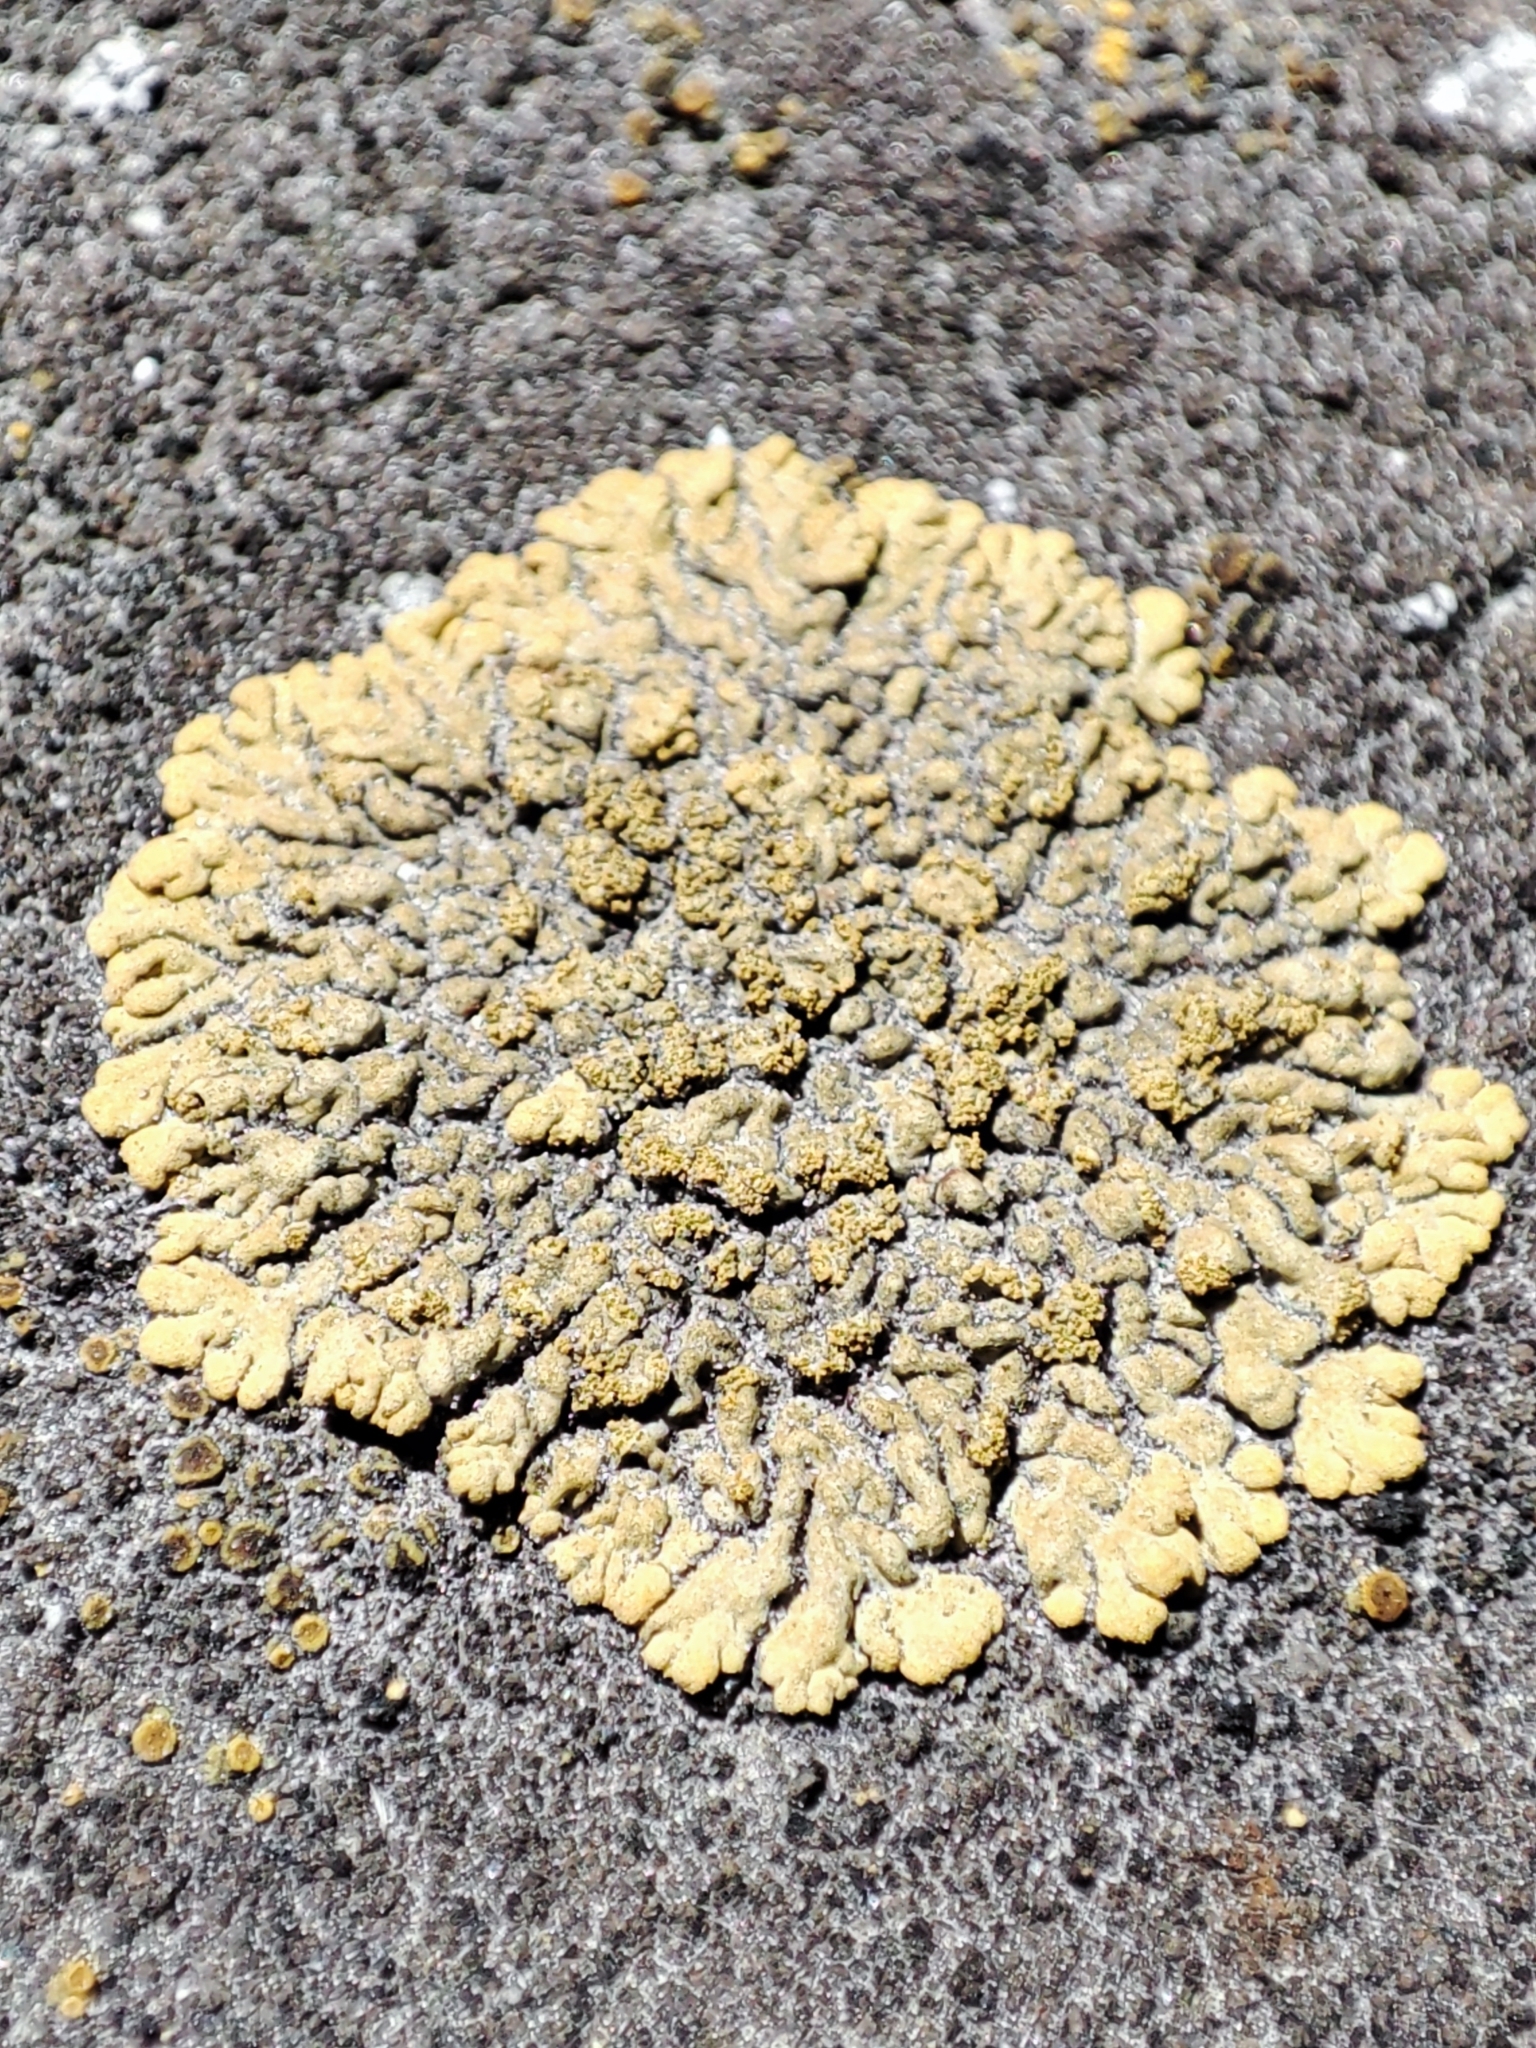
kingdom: Fungi
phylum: Ascomycota
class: Lecanoromycetes
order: Teloschistales
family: Teloschistaceae
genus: Calogaya
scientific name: Calogaya decipiens
